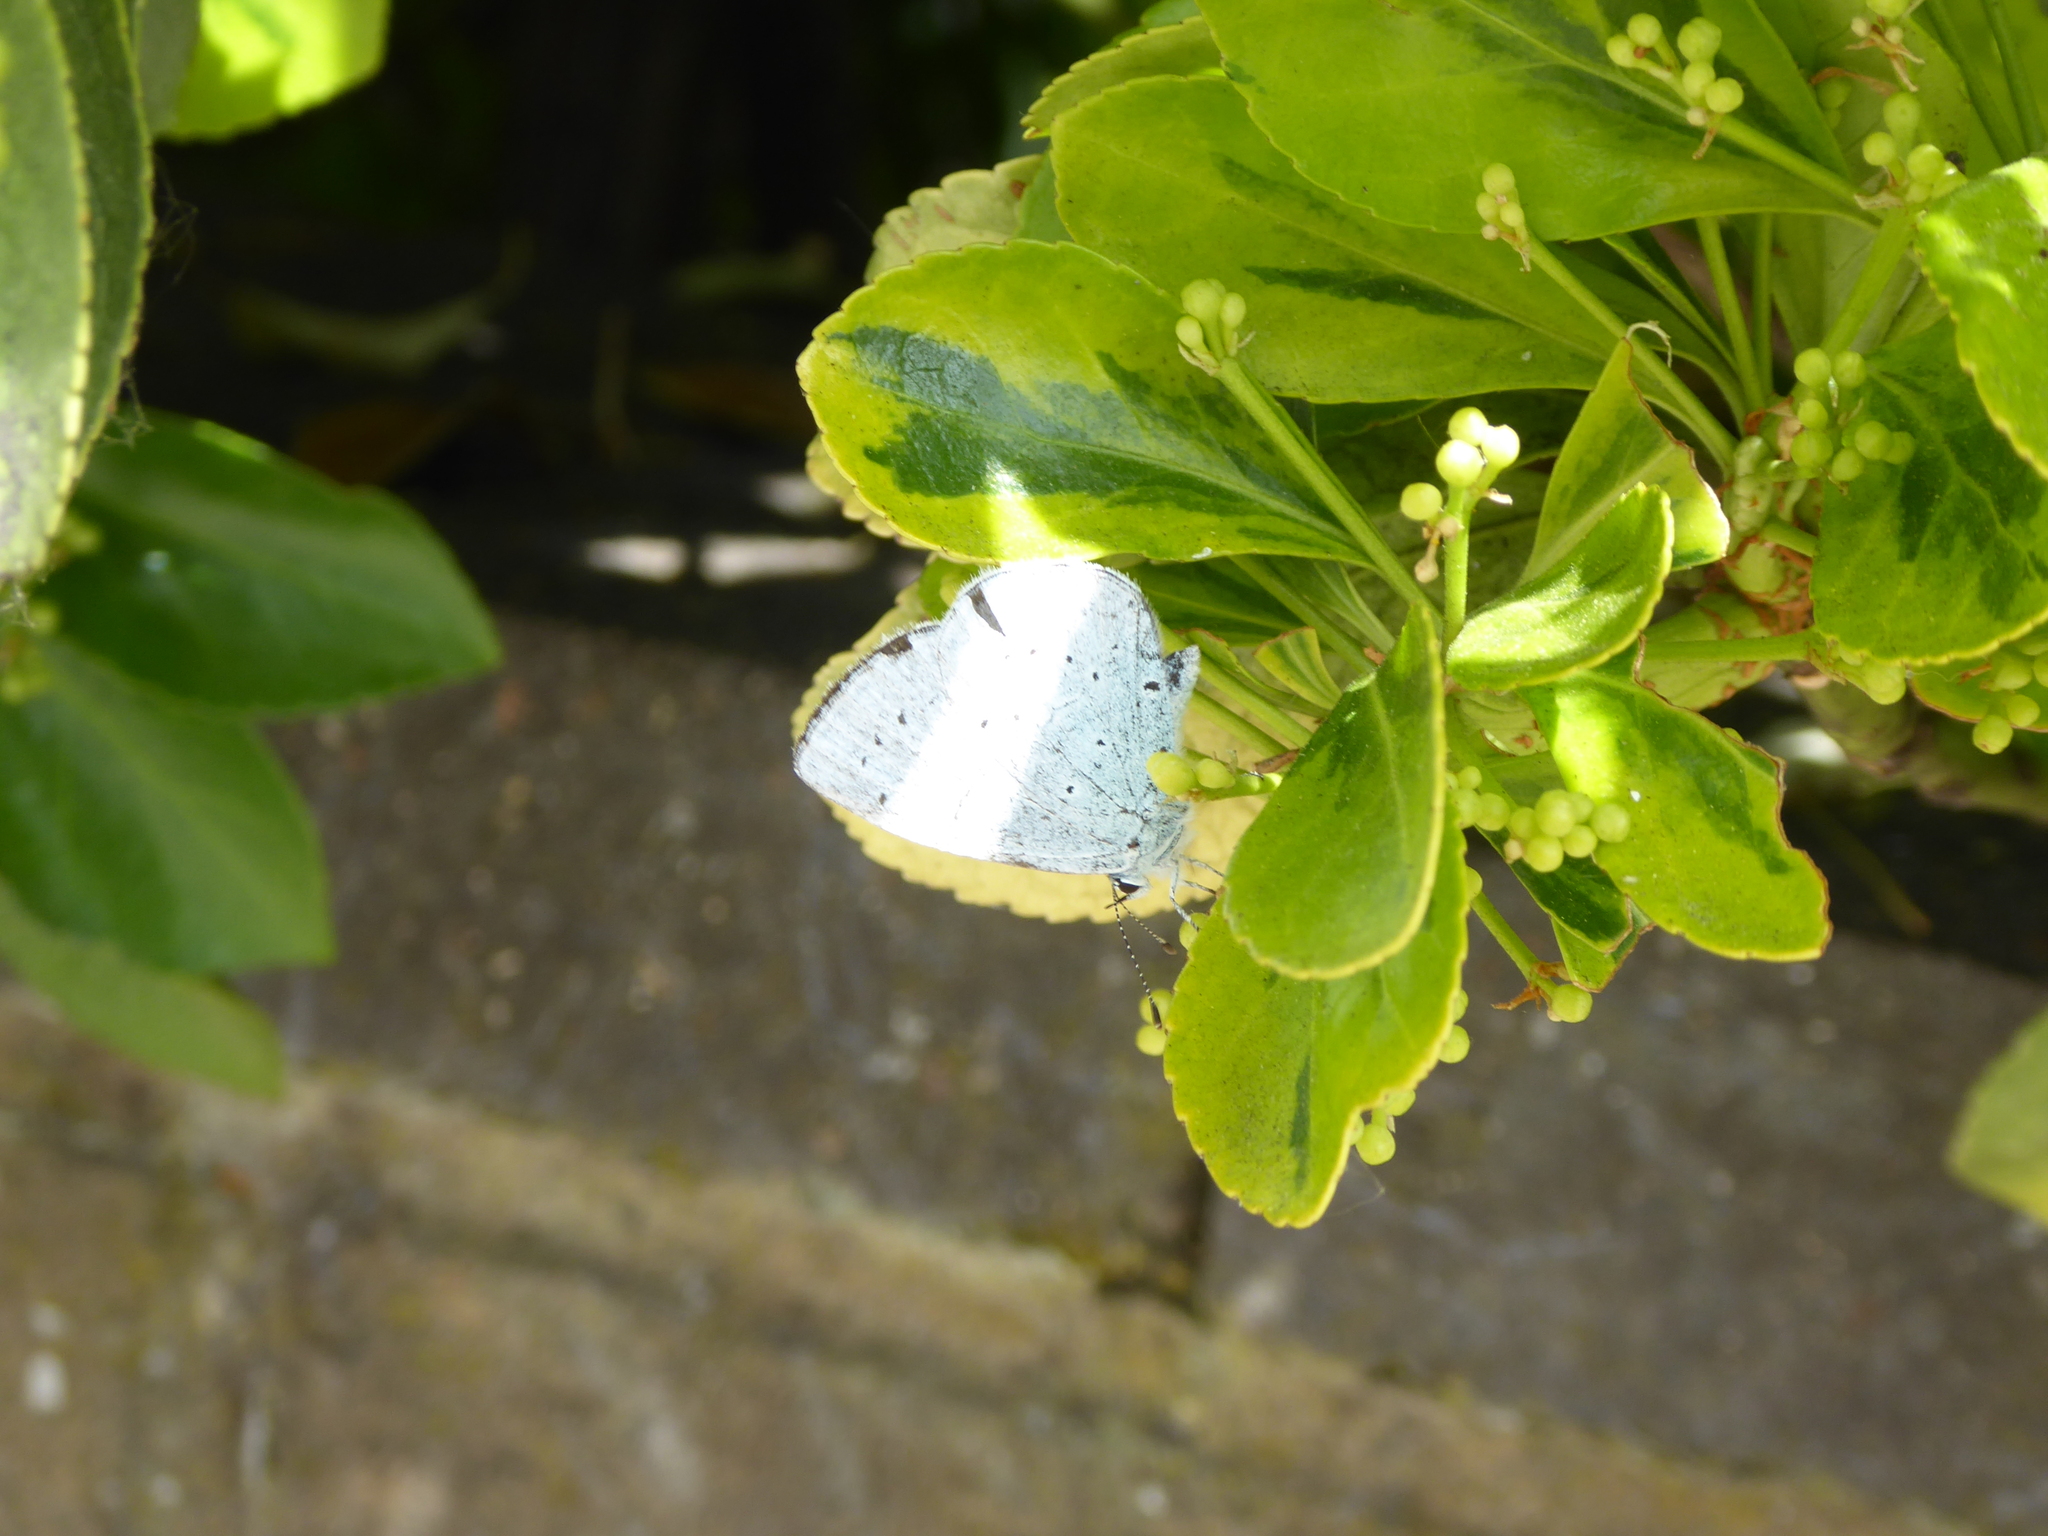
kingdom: Animalia
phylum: Arthropoda
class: Insecta
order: Lepidoptera
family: Lycaenidae
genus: Celastrina
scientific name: Celastrina argiolus
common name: Holly blue
